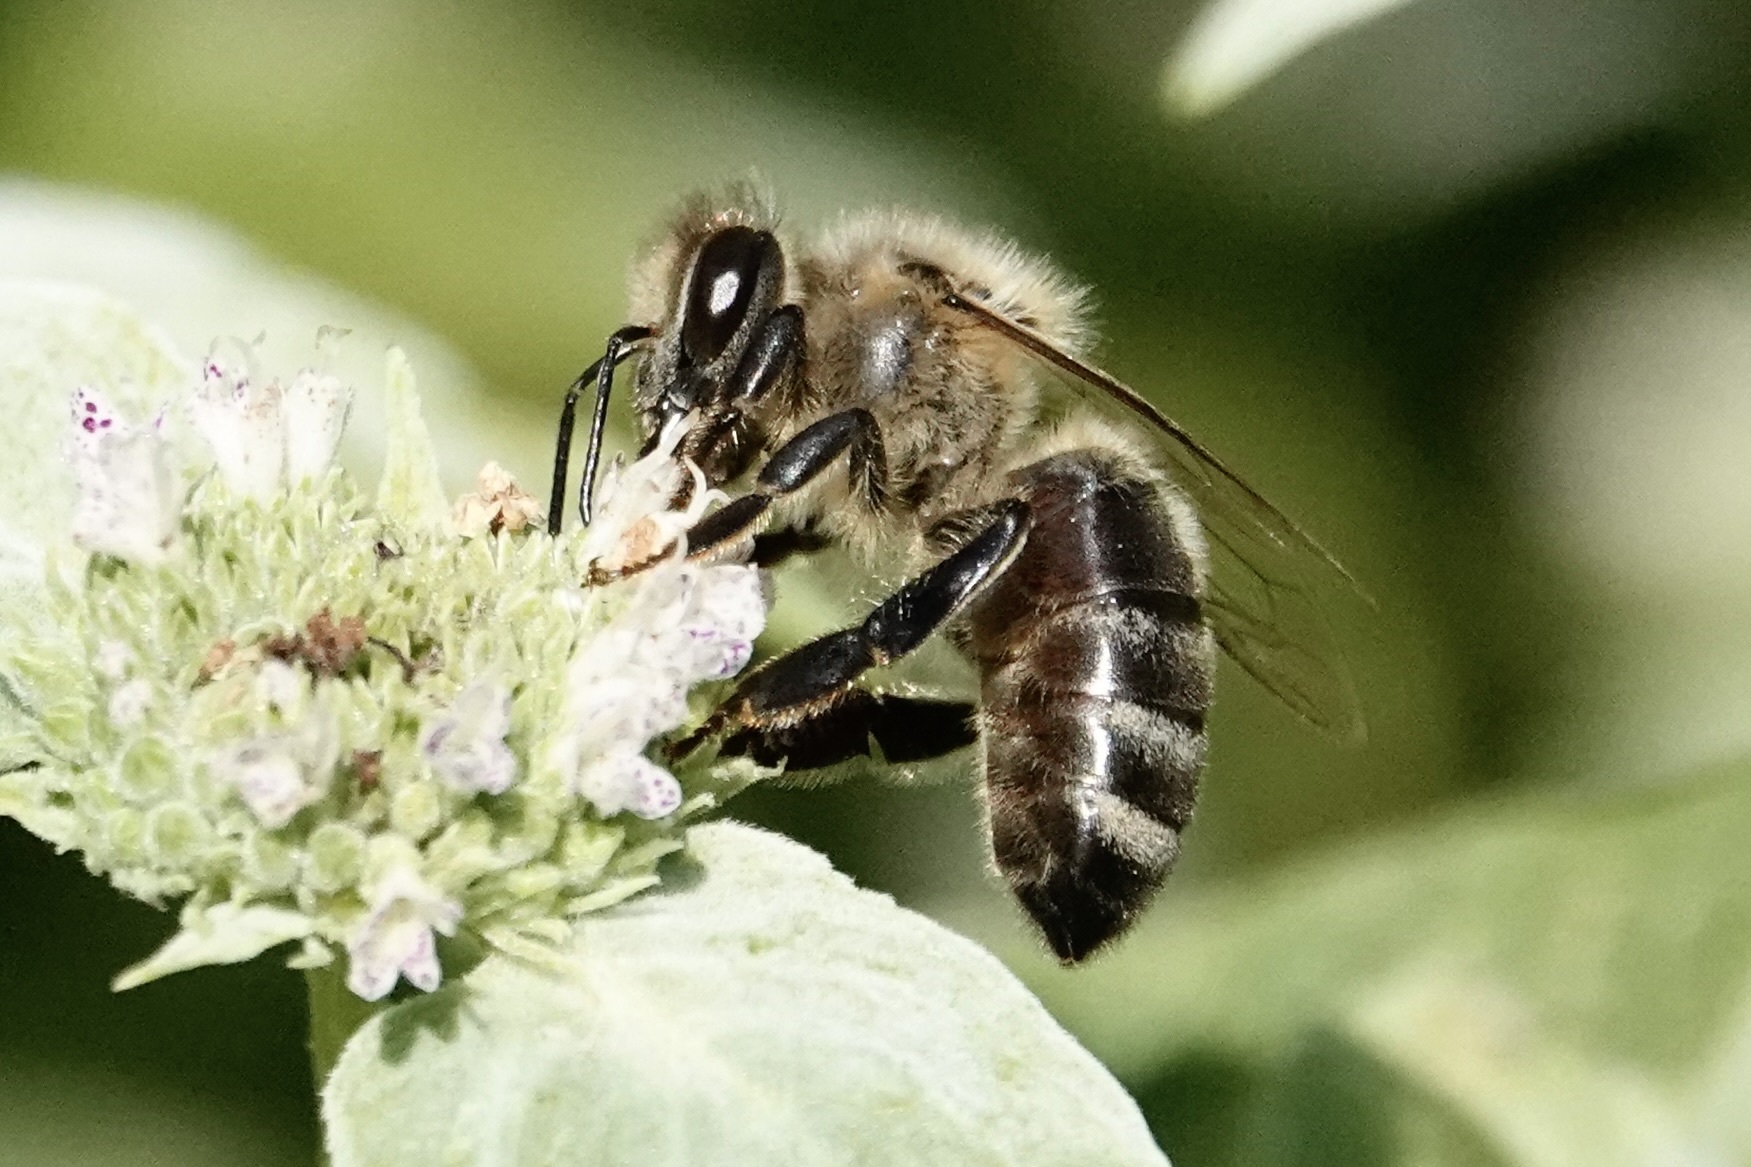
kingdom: Animalia
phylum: Arthropoda
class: Insecta
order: Hymenoptera
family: Apidae
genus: Apis
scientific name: Apis mellifera
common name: Honey bee
